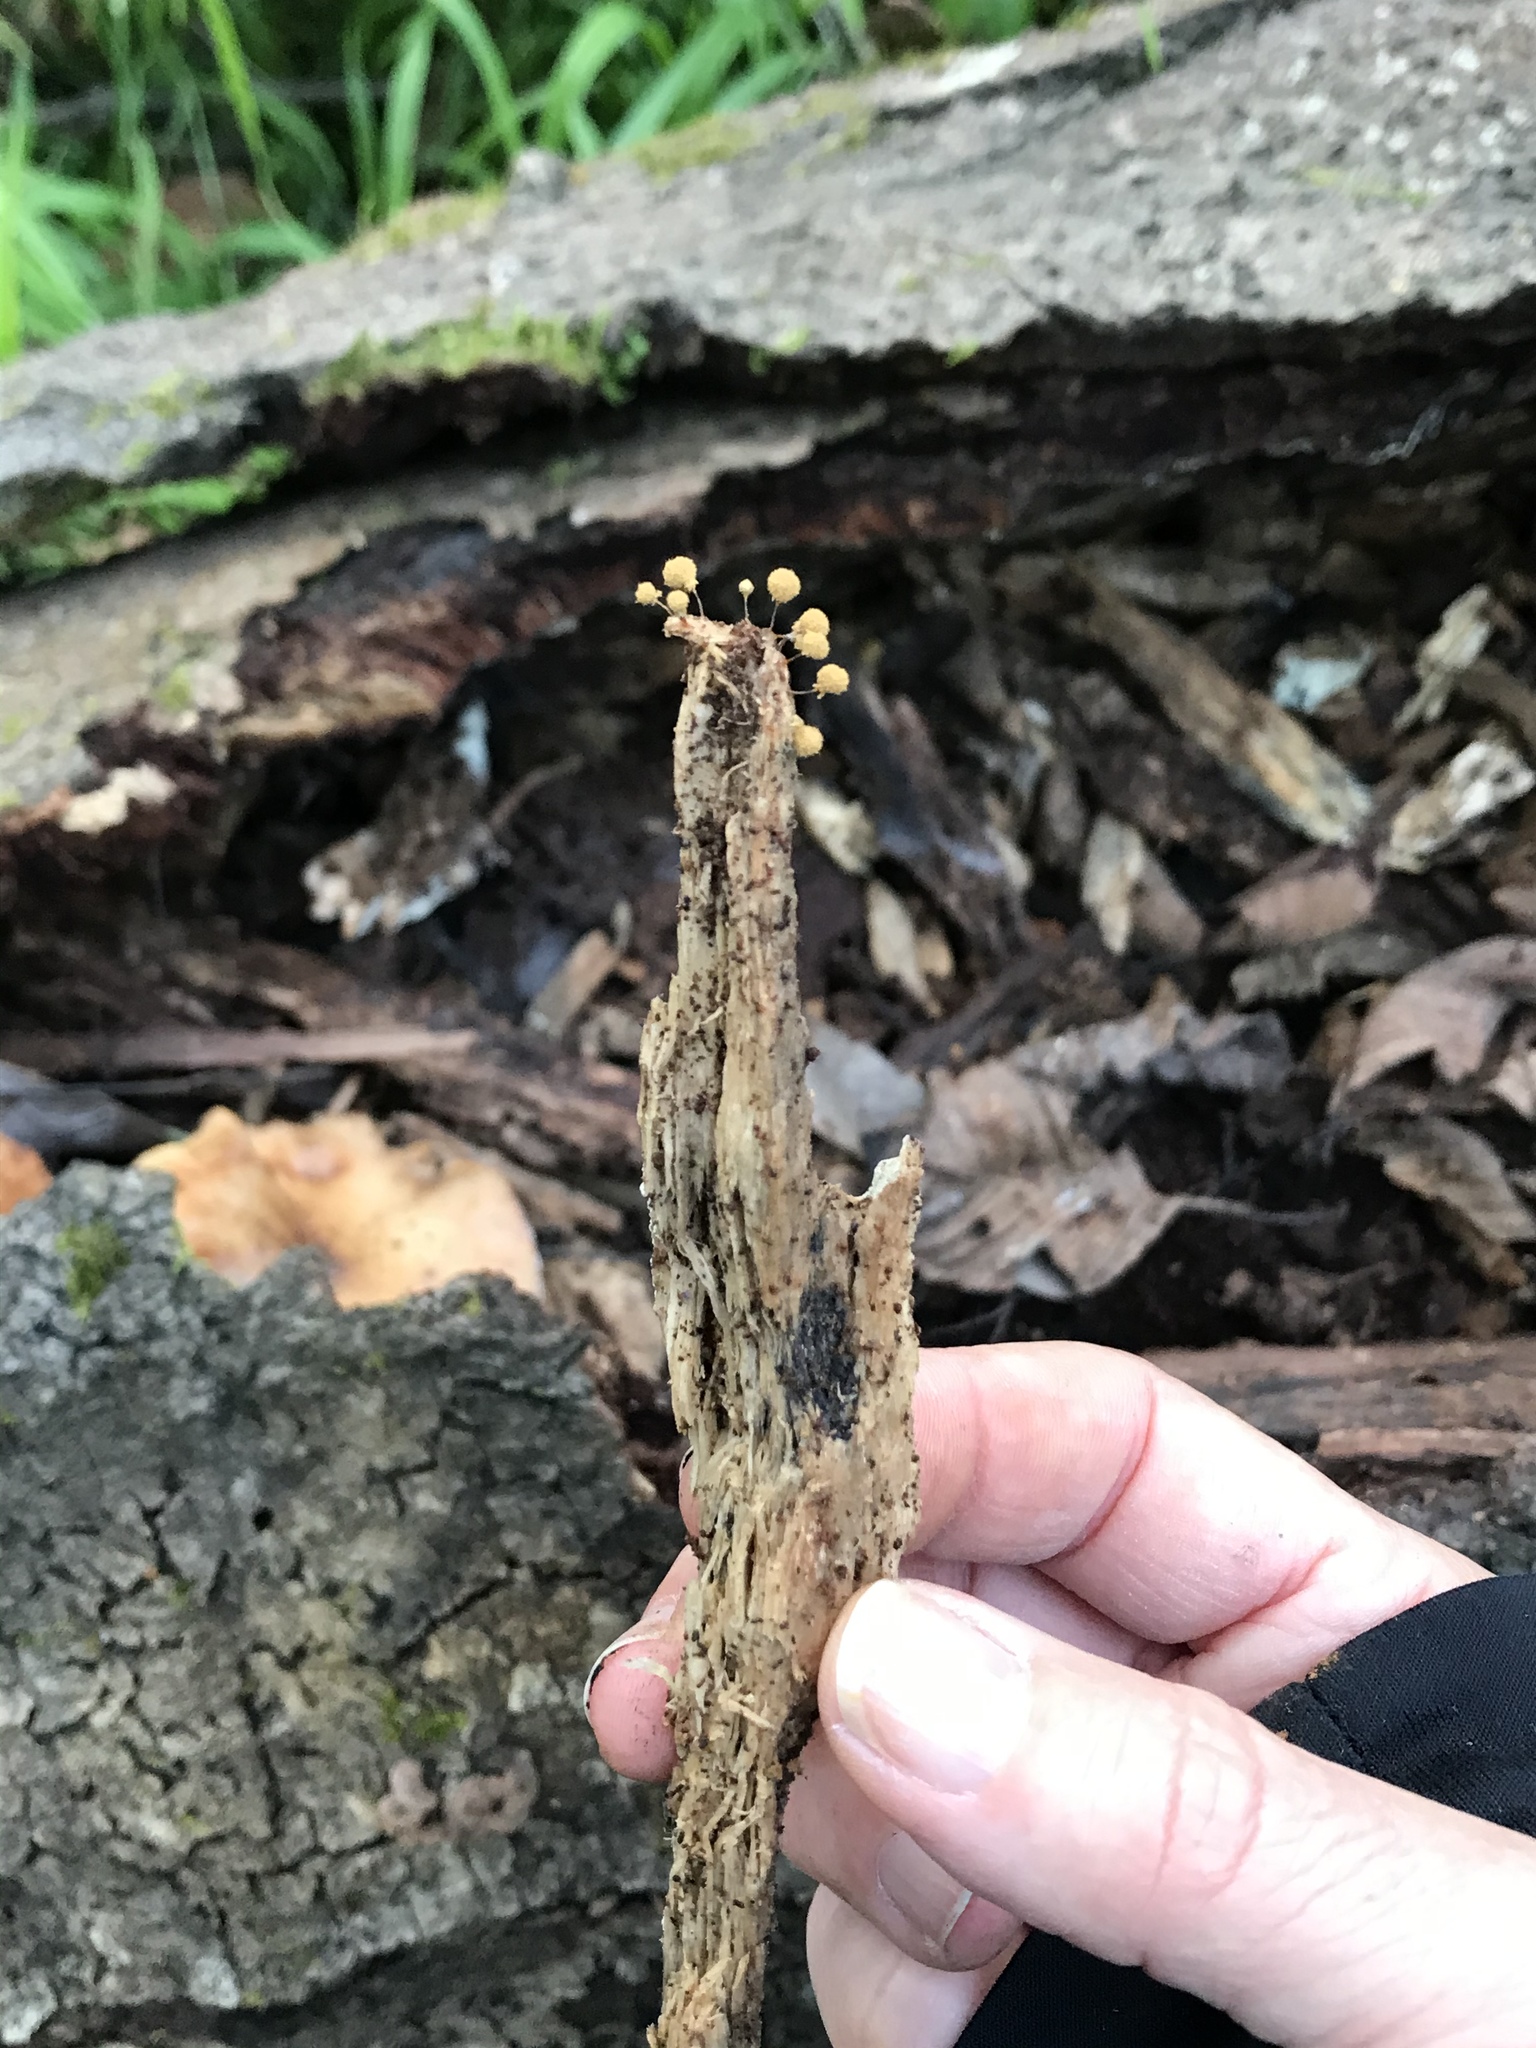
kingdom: Protozoa
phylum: Mycetozoa
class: Myxomycetes
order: Trichiales
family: Arcyriaceae
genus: Hemitrichia
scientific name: Hemitrichia calyculata
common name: Push pin slime mold
